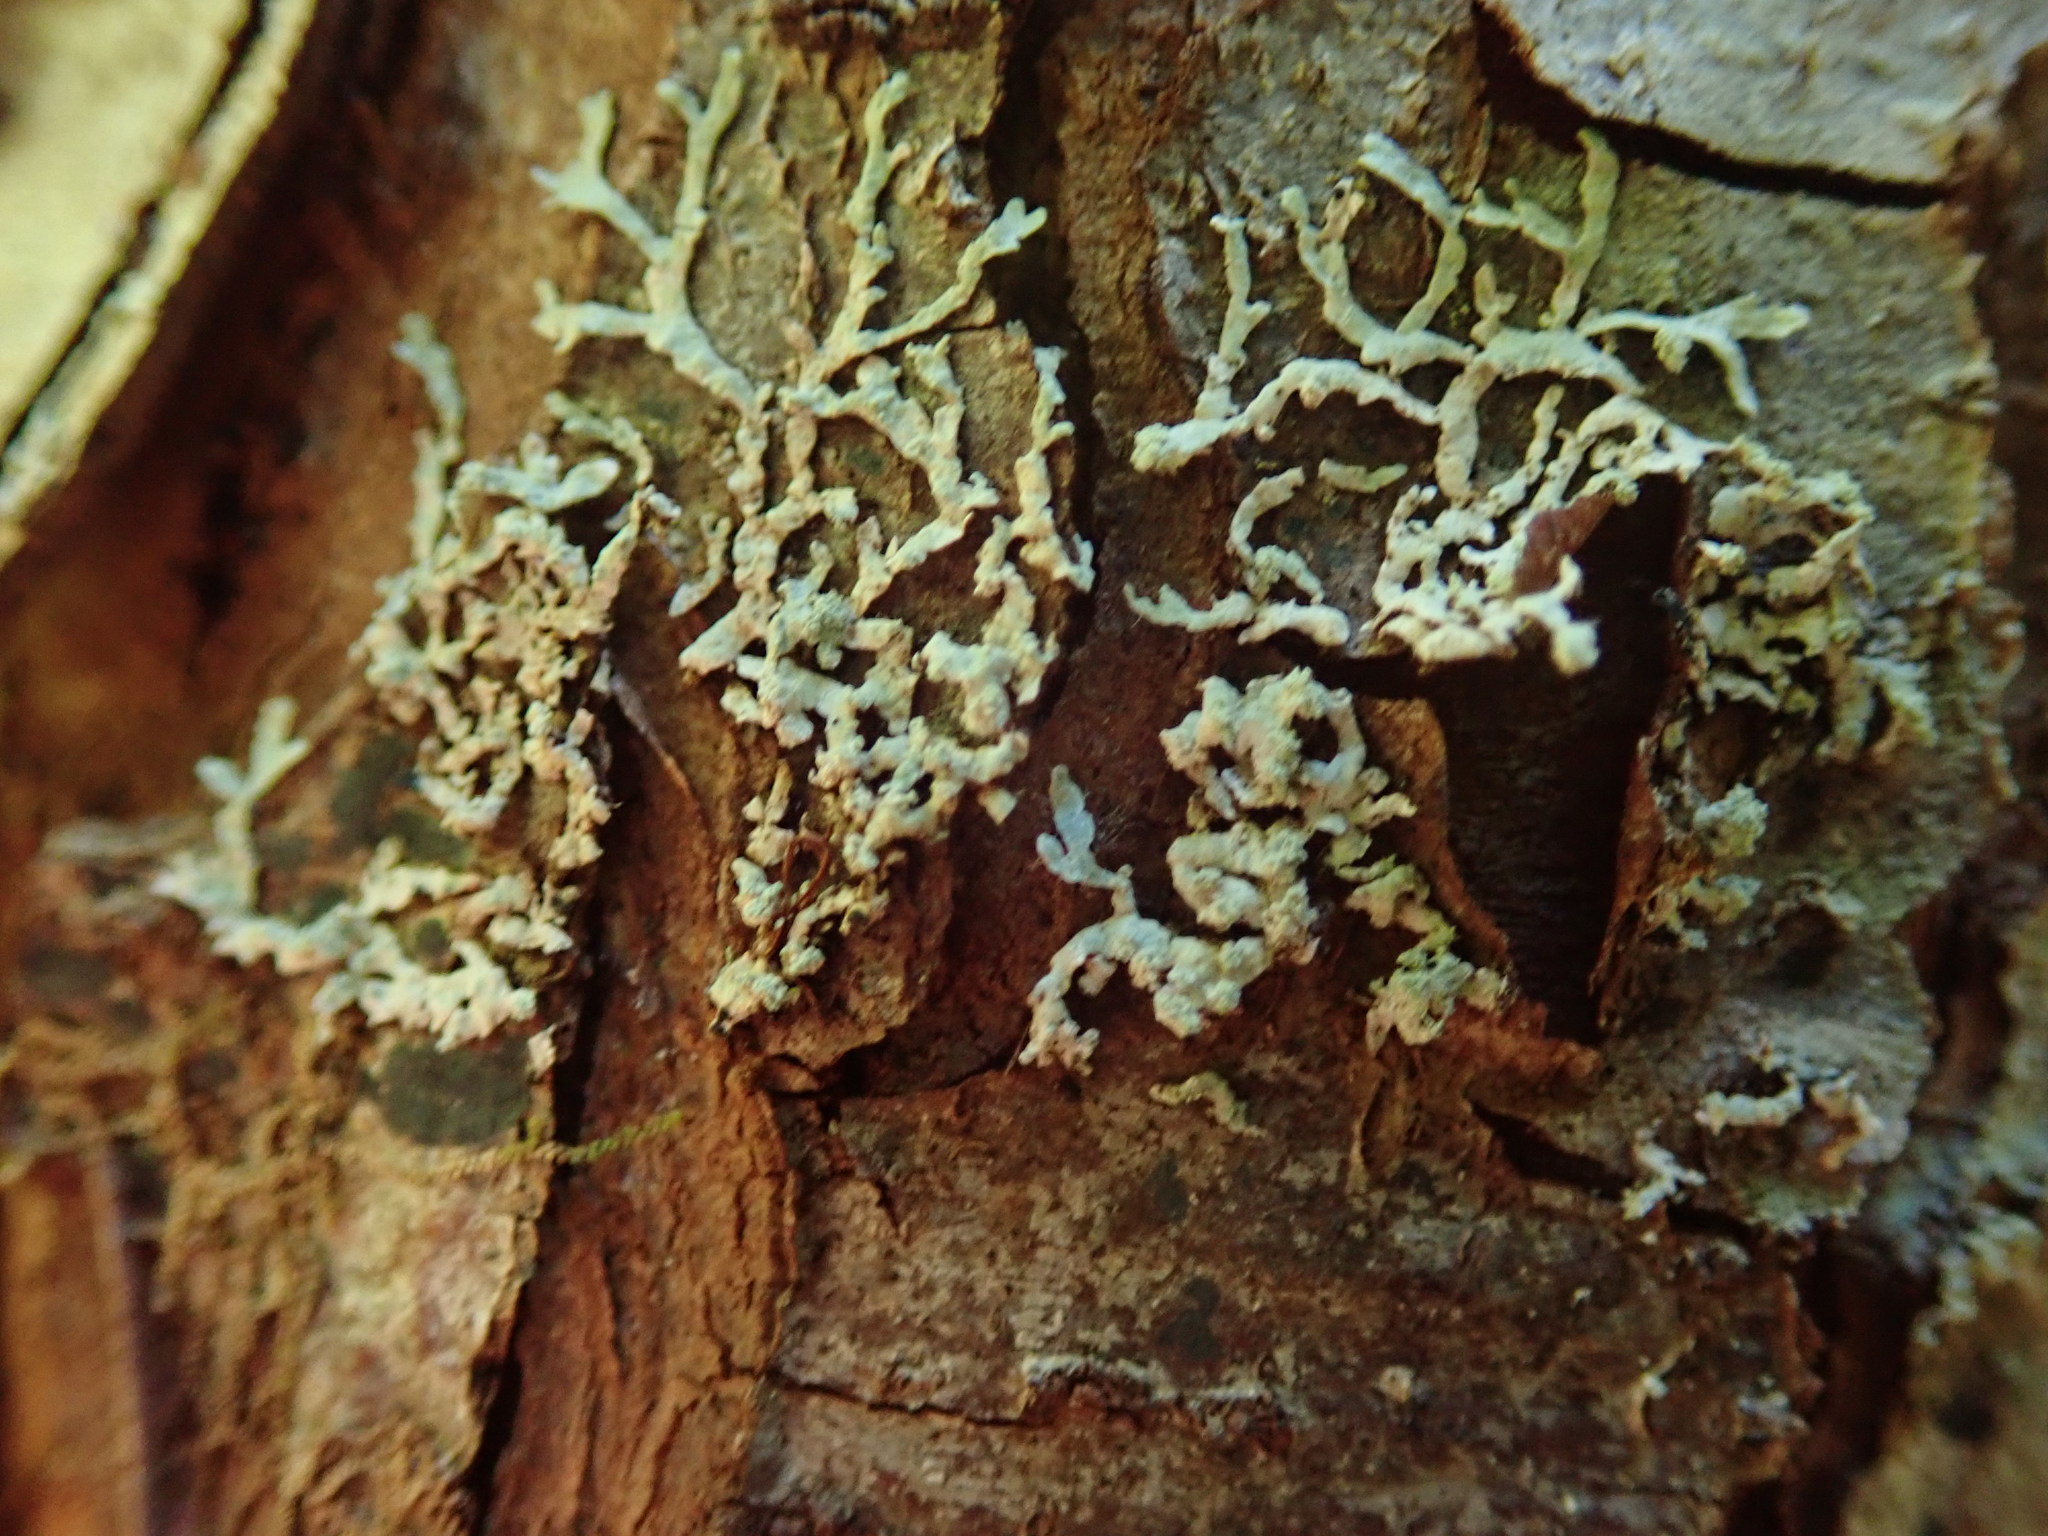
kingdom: Fungi
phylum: Ascomycota
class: Lecanoromycetes
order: Lecanorales
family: Parmeliaceae
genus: Parmeliopsis
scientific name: Parmeliopsis hyperopta
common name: Grey starburst lichen
